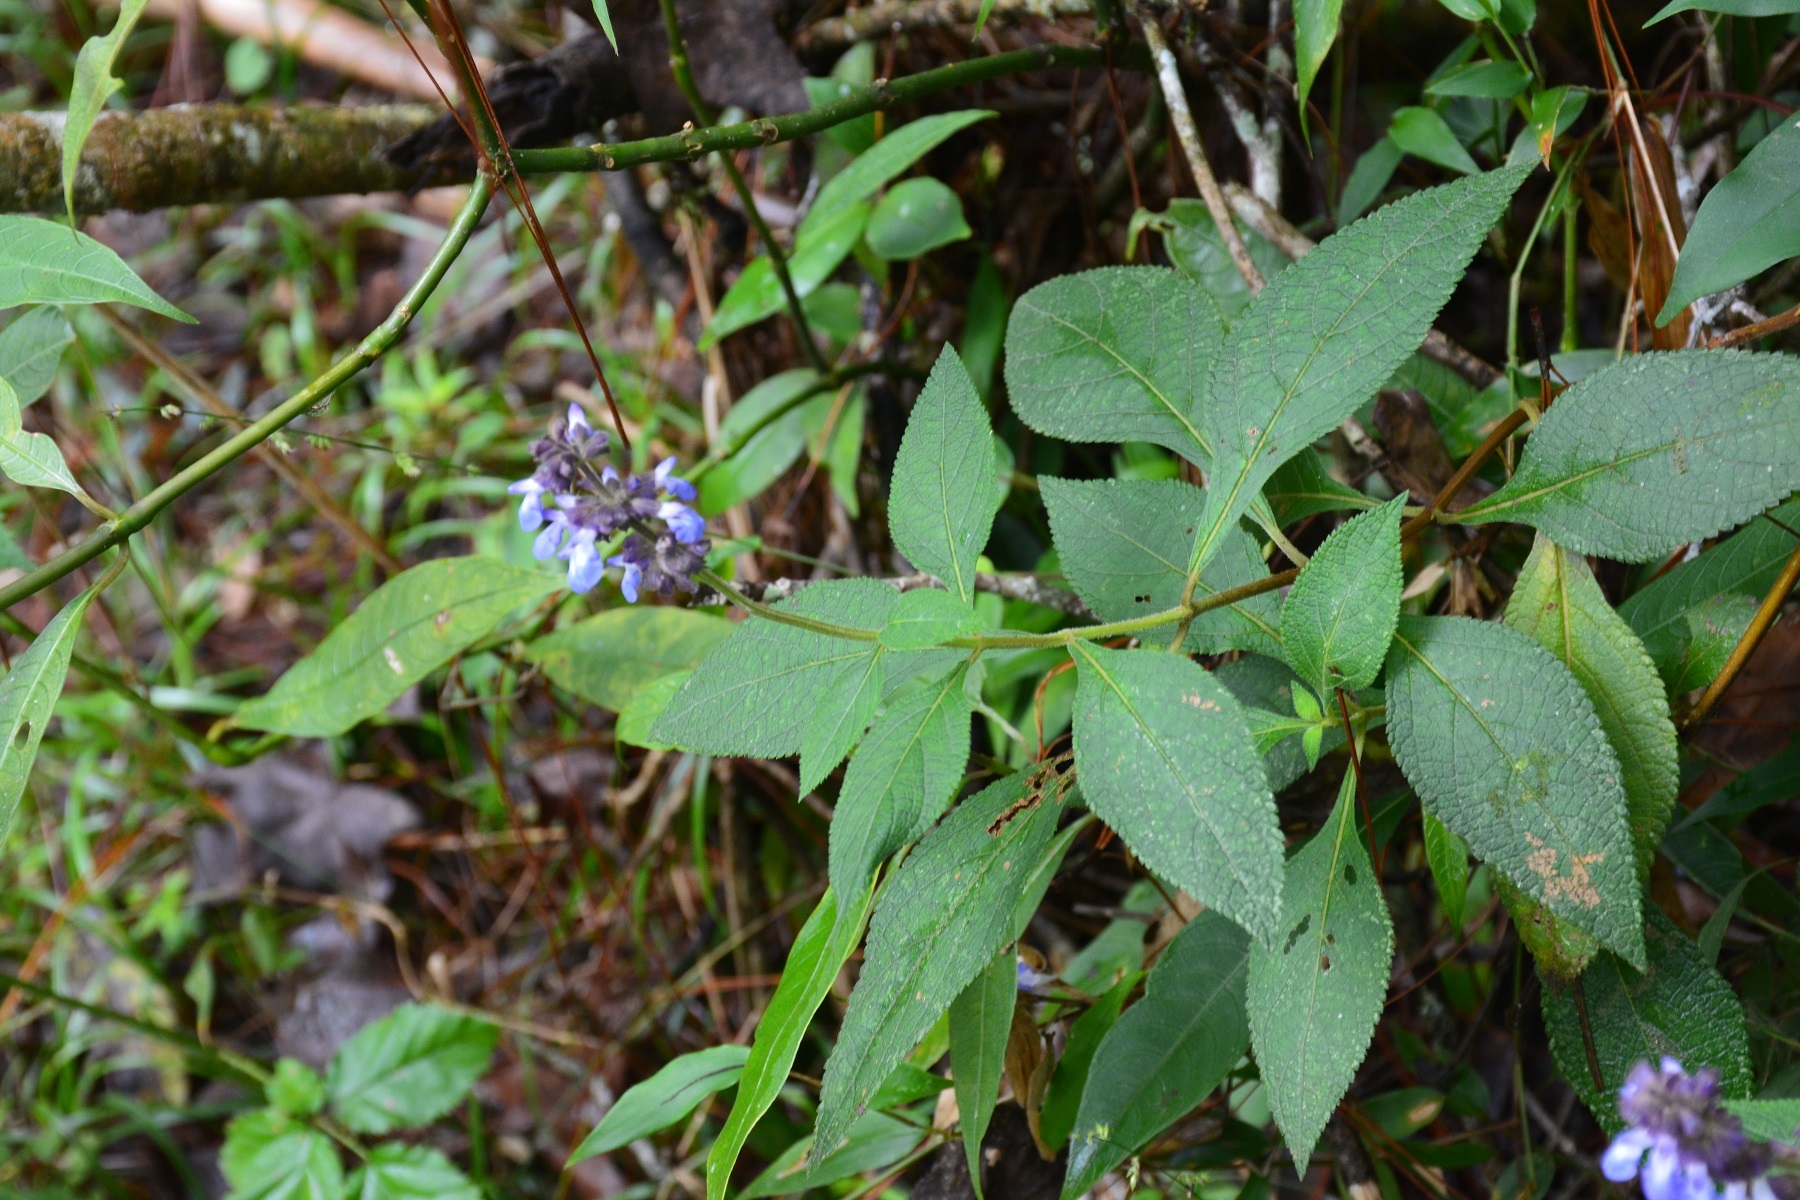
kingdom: Plantae
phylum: Tracheophyta
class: Magnoliopsida
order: Lamiales
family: Lamiaceae
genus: Salvia
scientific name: Salvia mocinoi
